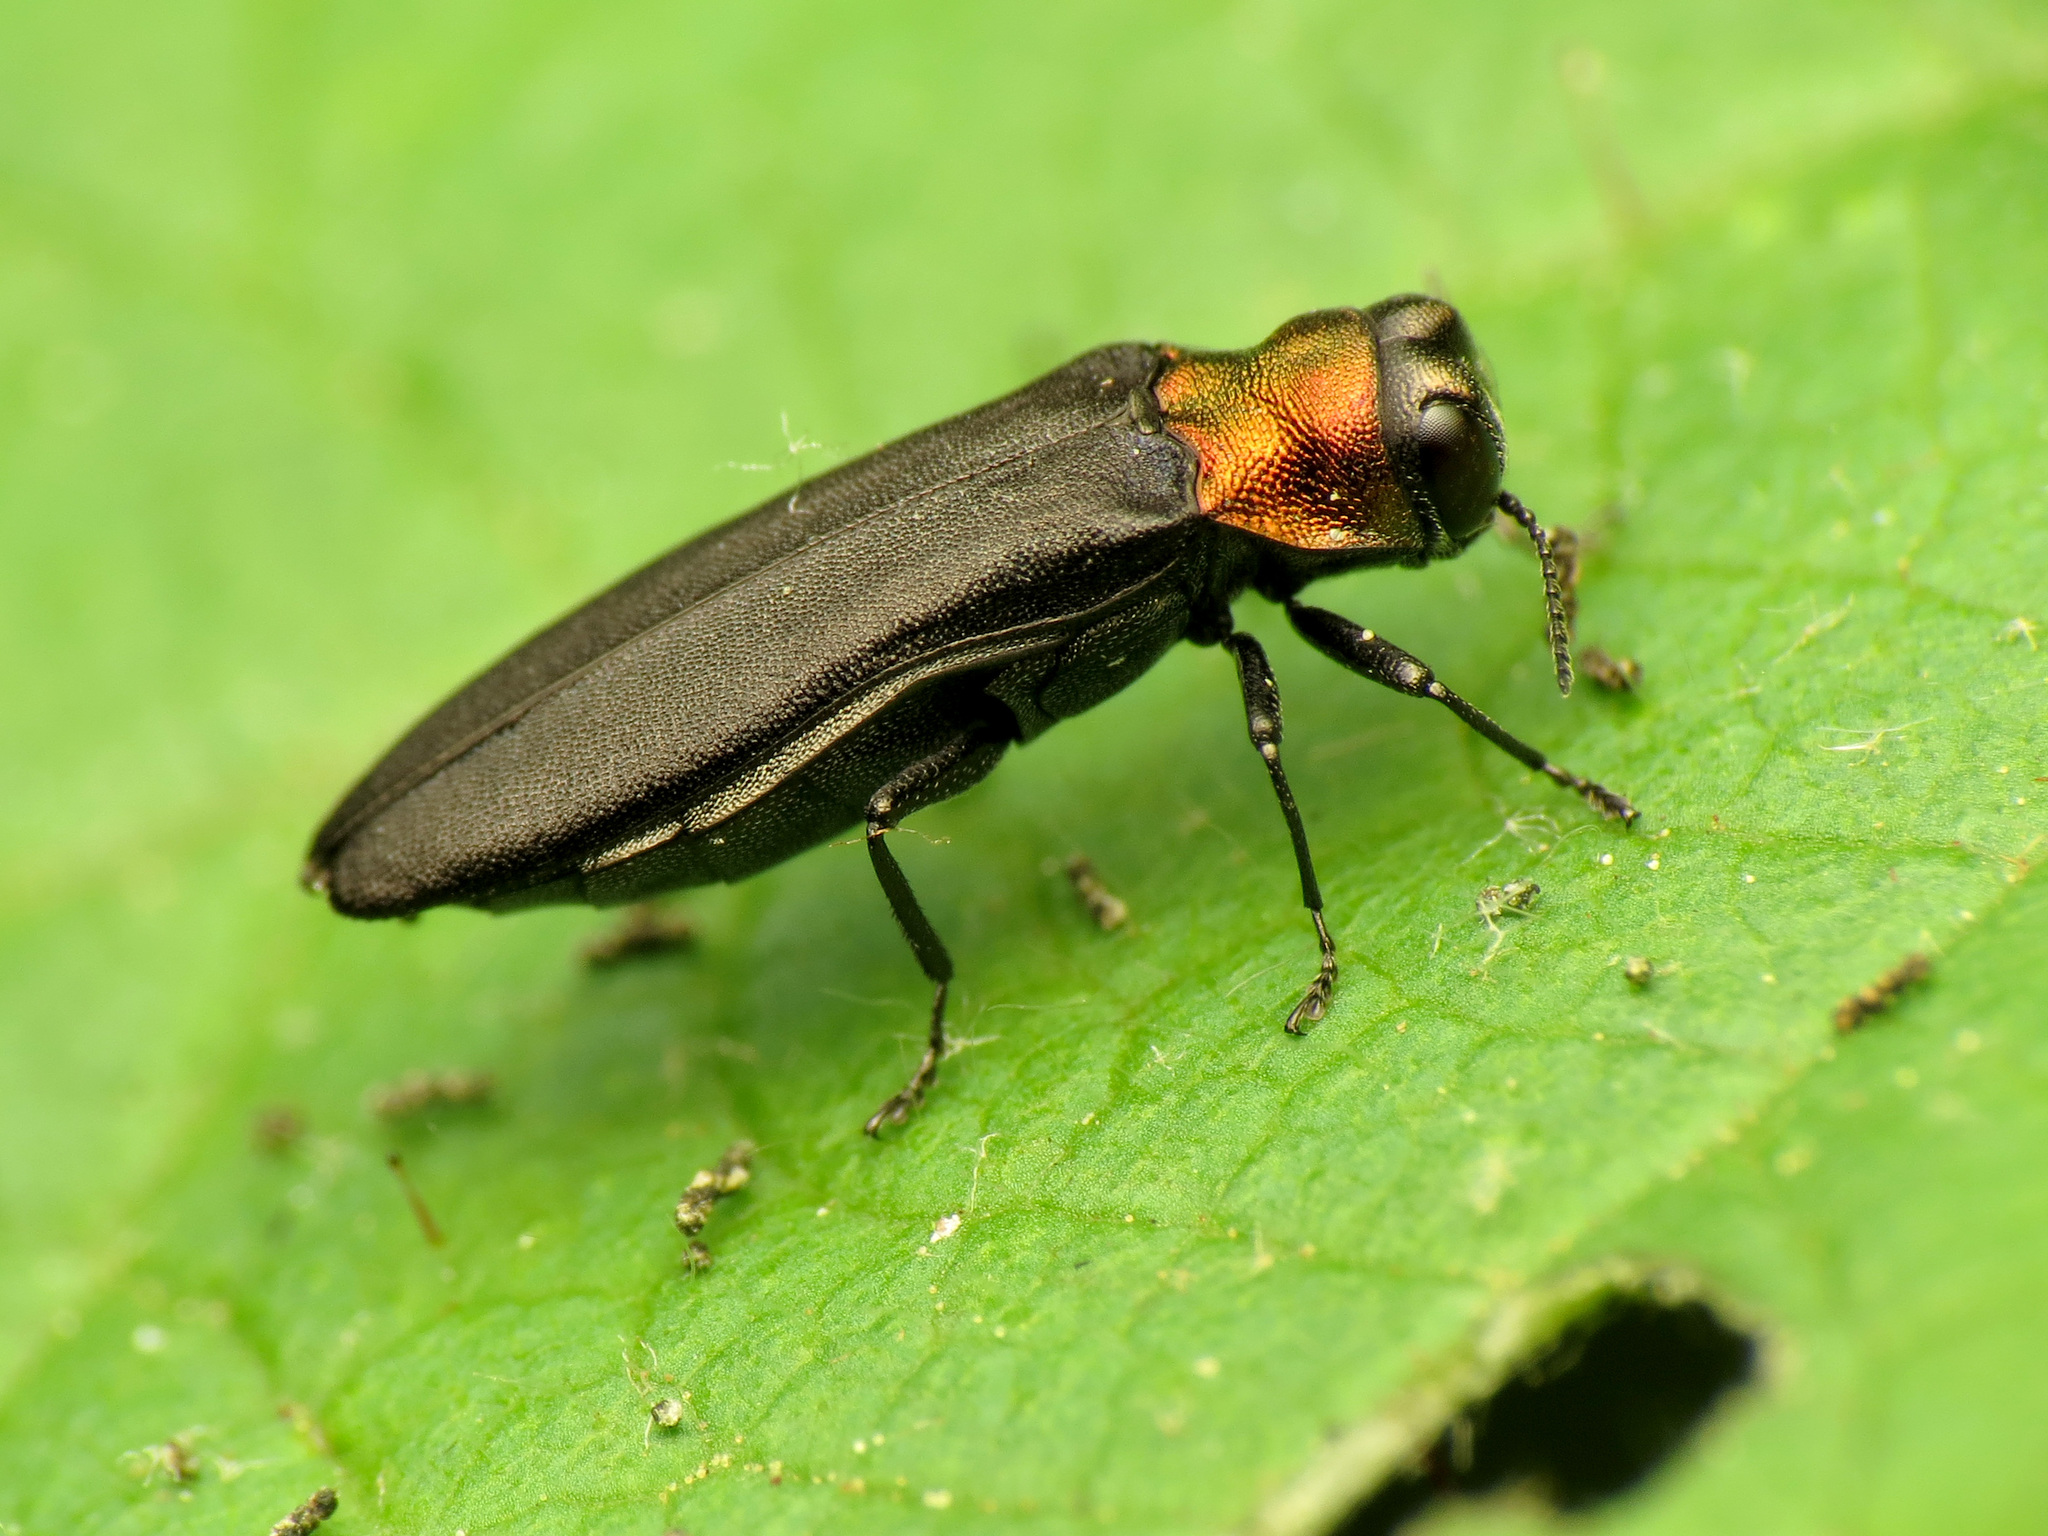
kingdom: Animalia
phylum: Arthropoda
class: Insecta
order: Coleoptera
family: Buprestidae
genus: Agrilus
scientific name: Agrilus ruficollis
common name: Red-necked cane borer beetle
